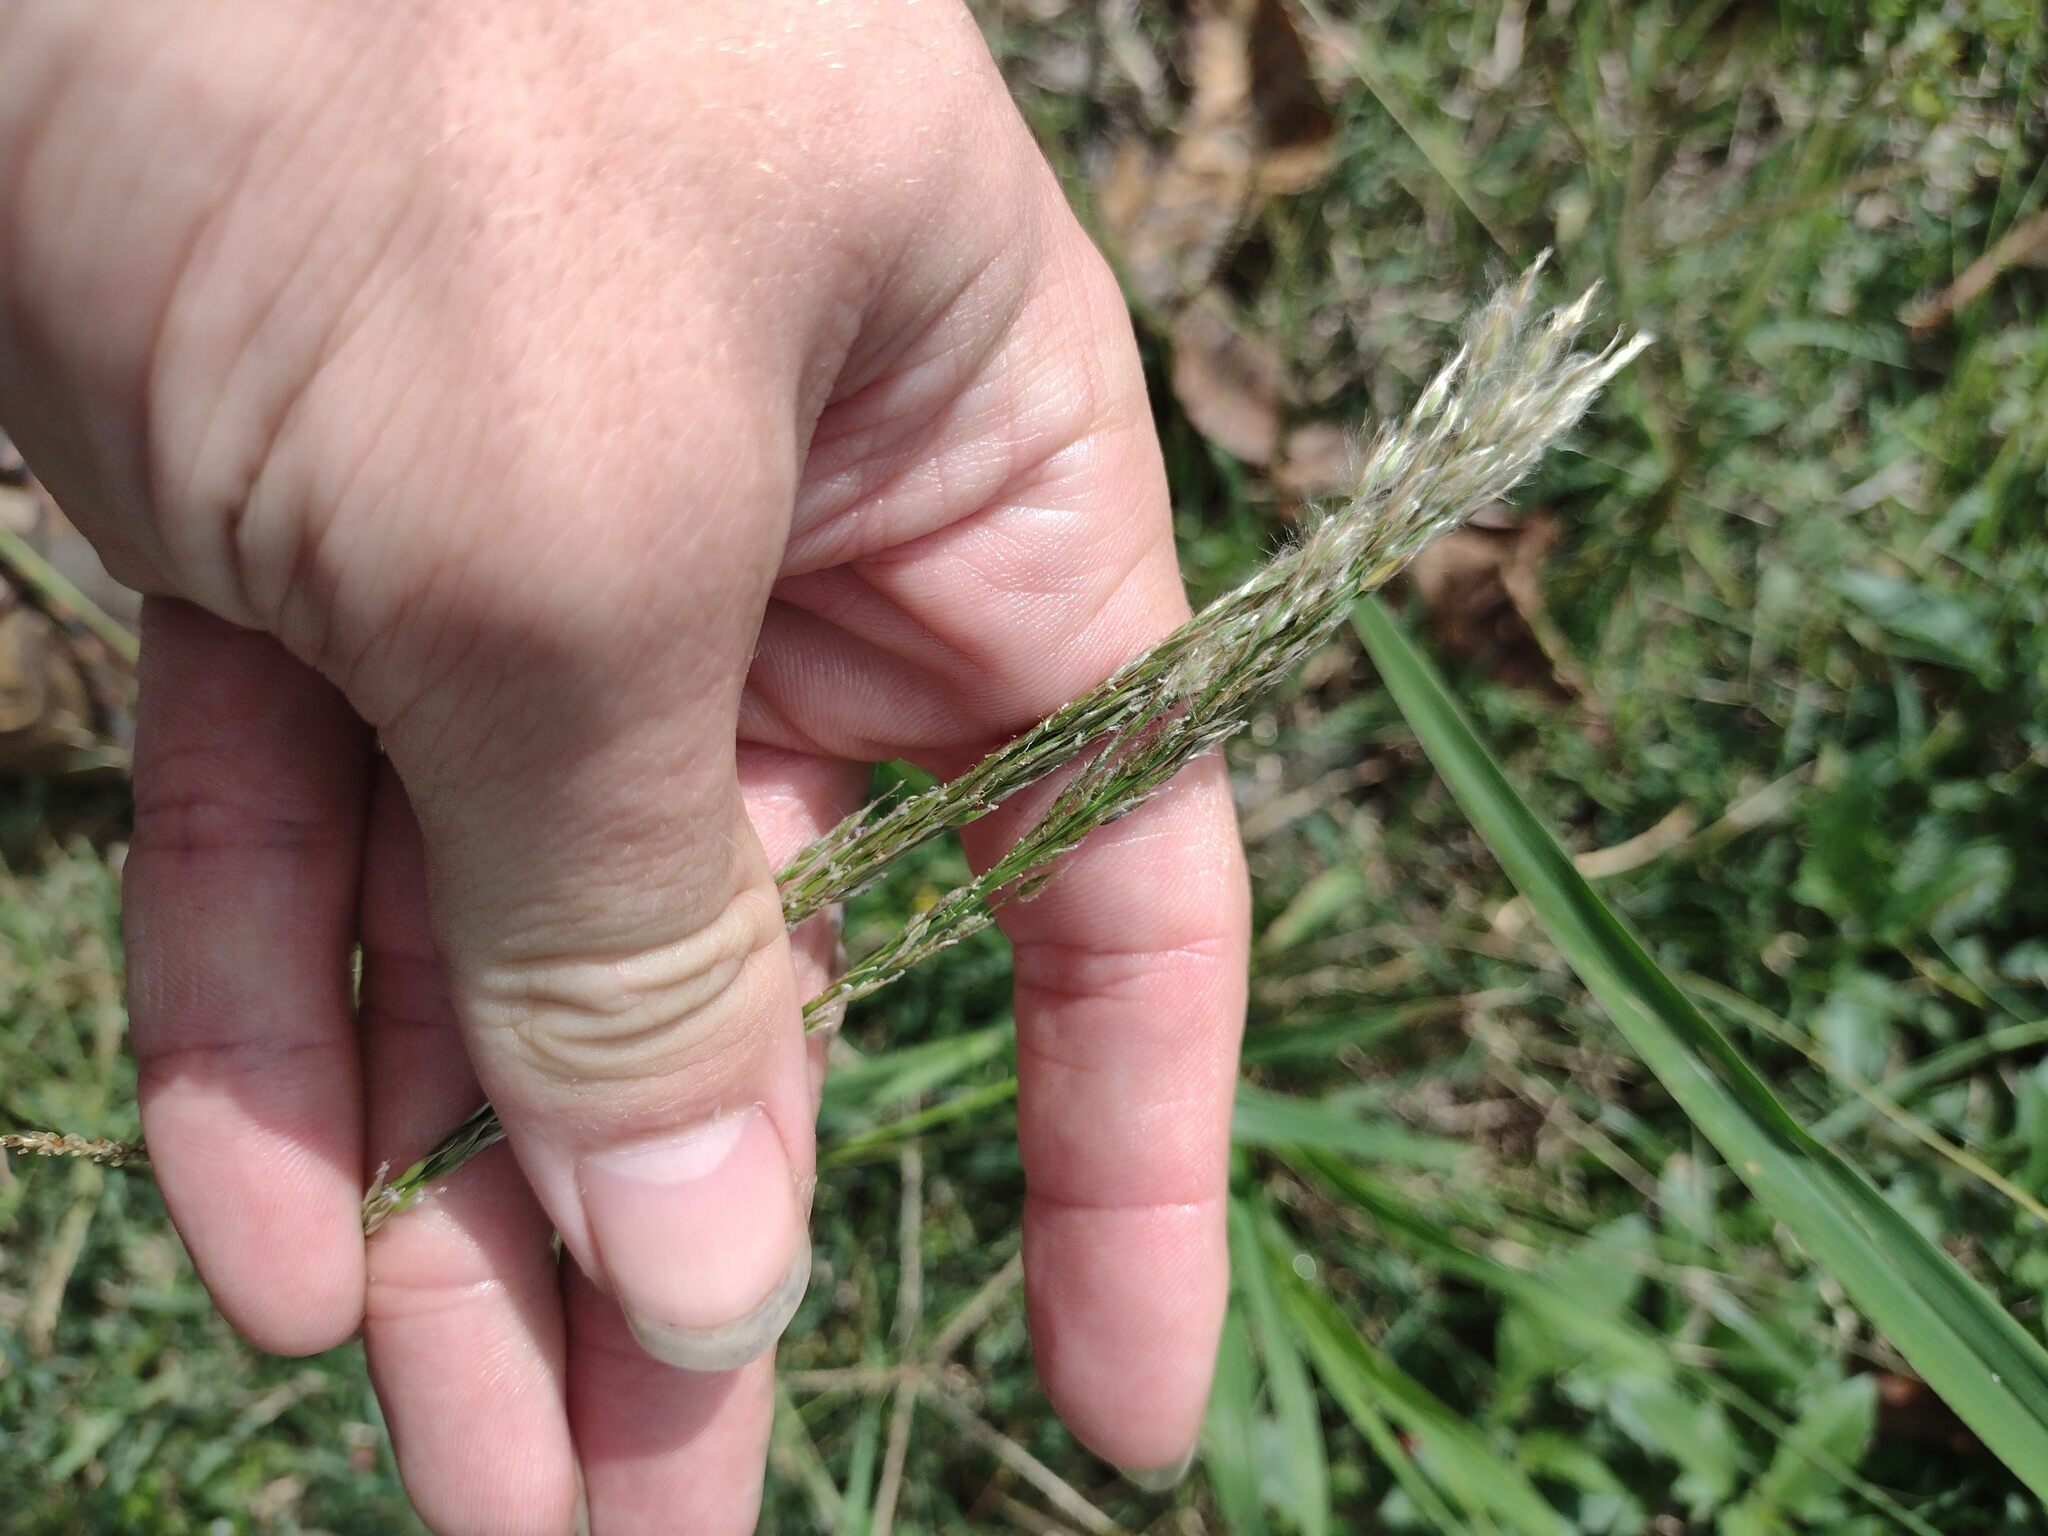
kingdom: Plantae
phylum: Tracheophyta
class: Liliopsida
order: Poales
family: Poaceae
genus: Digitaria
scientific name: Digitaria insularis
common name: Sourgrass
